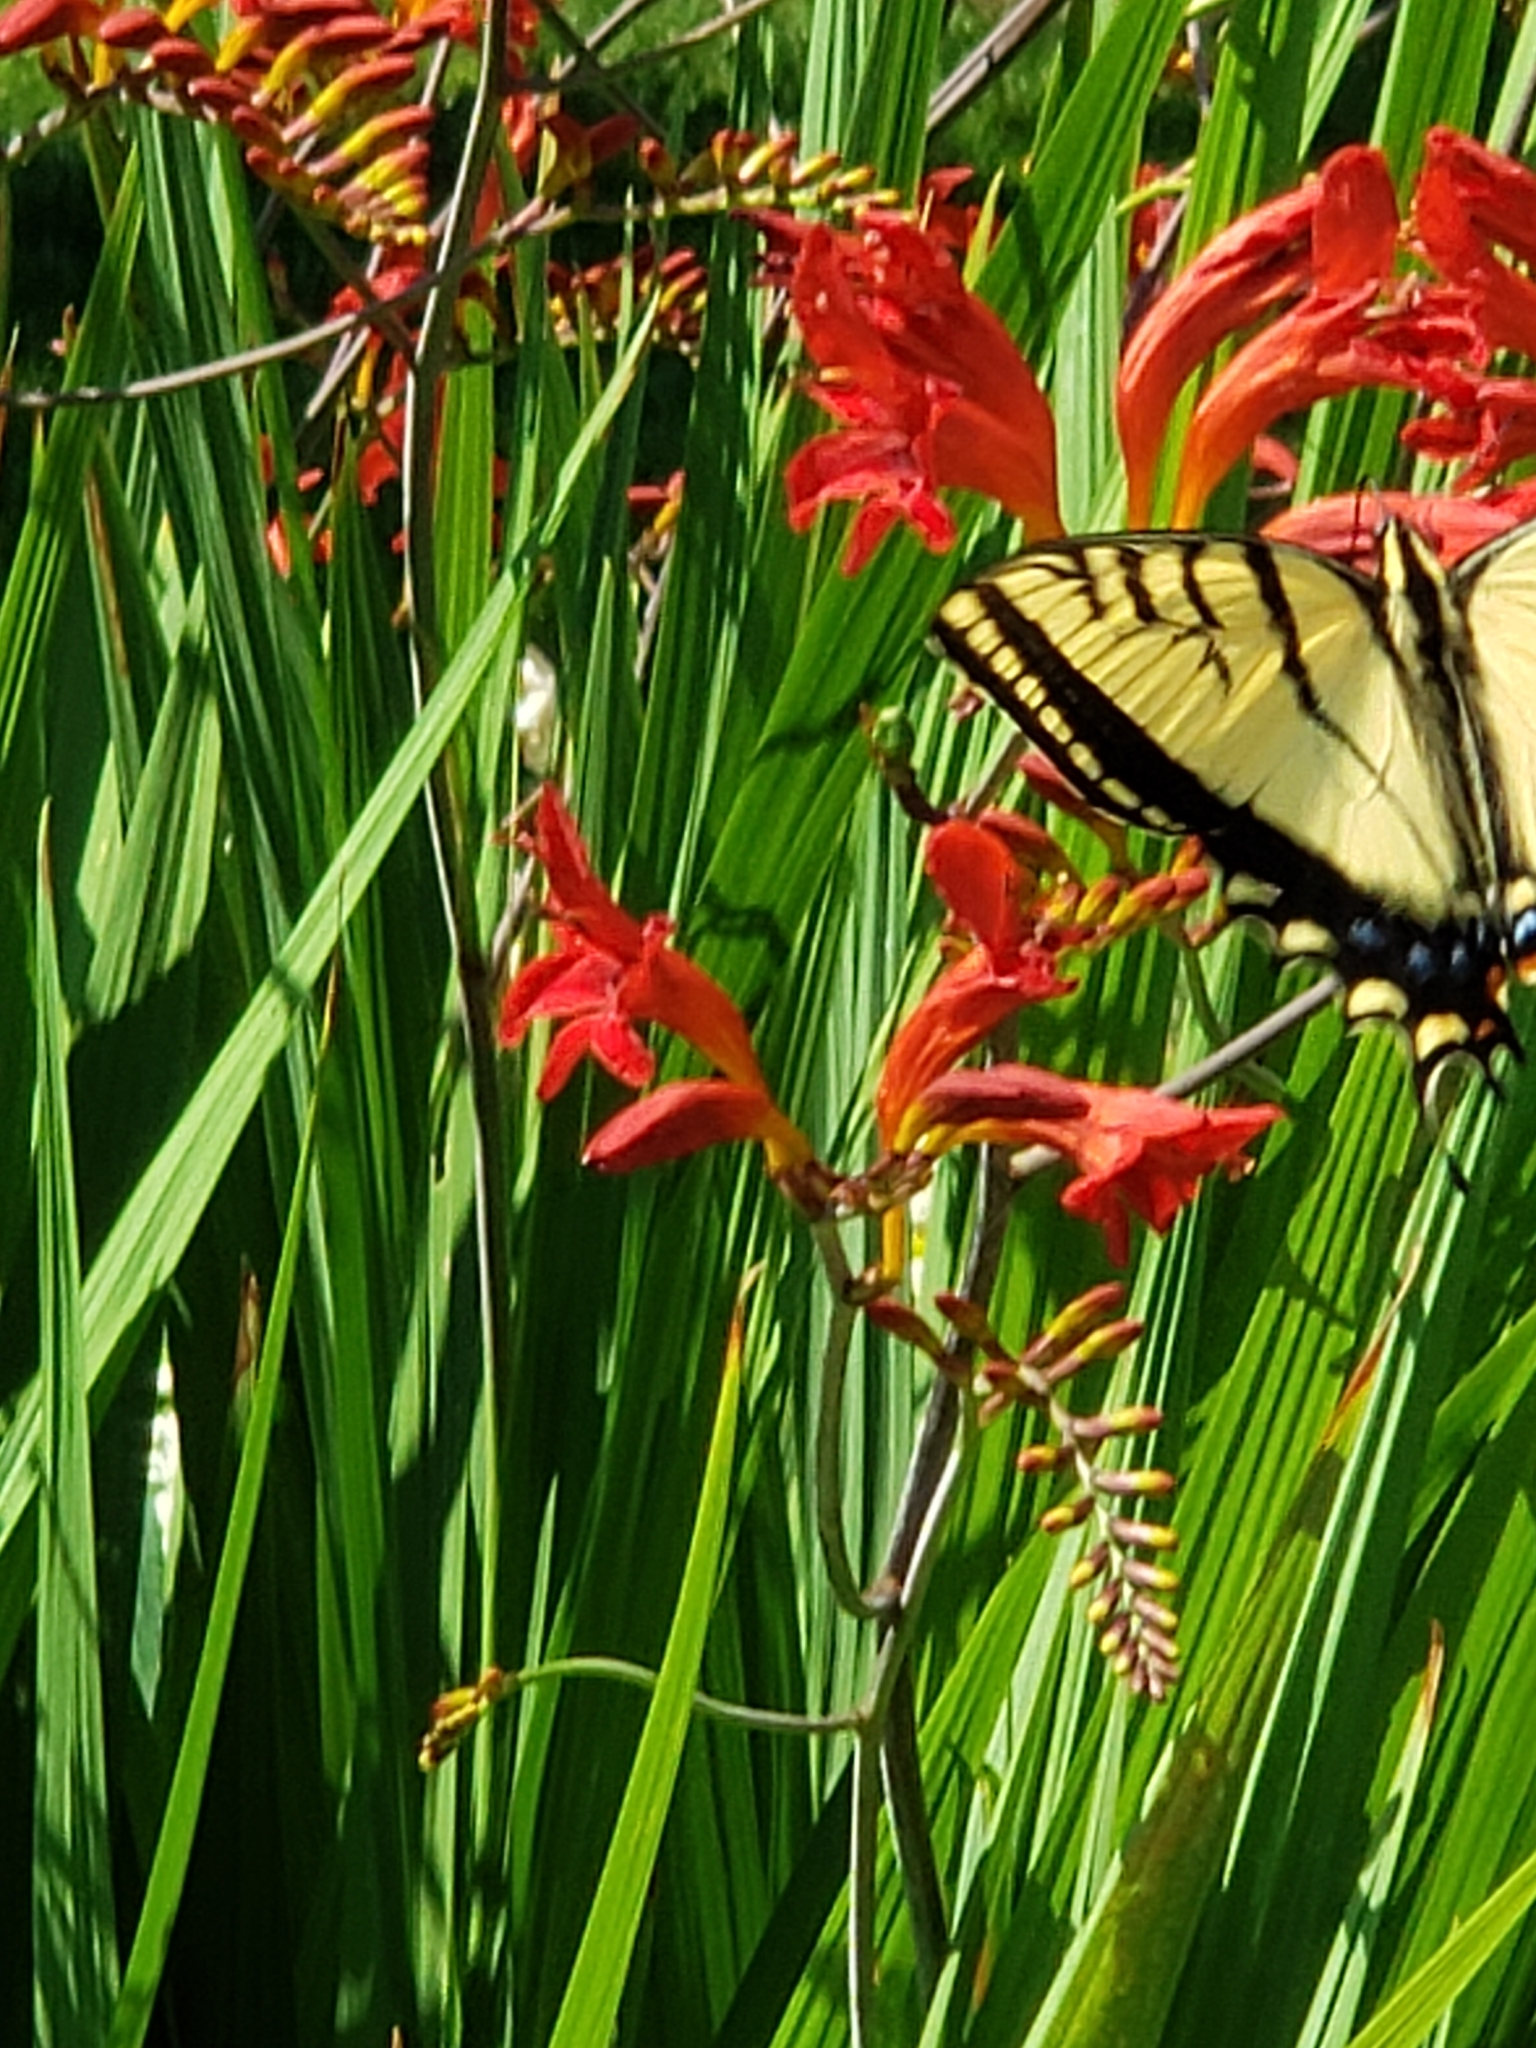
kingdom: Animalia
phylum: Arthropoda
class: Insecta
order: Lepidoptera
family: Papilionidae
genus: Papilio
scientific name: Papilio multicaudata
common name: Two-tailed tiger swallowtail
